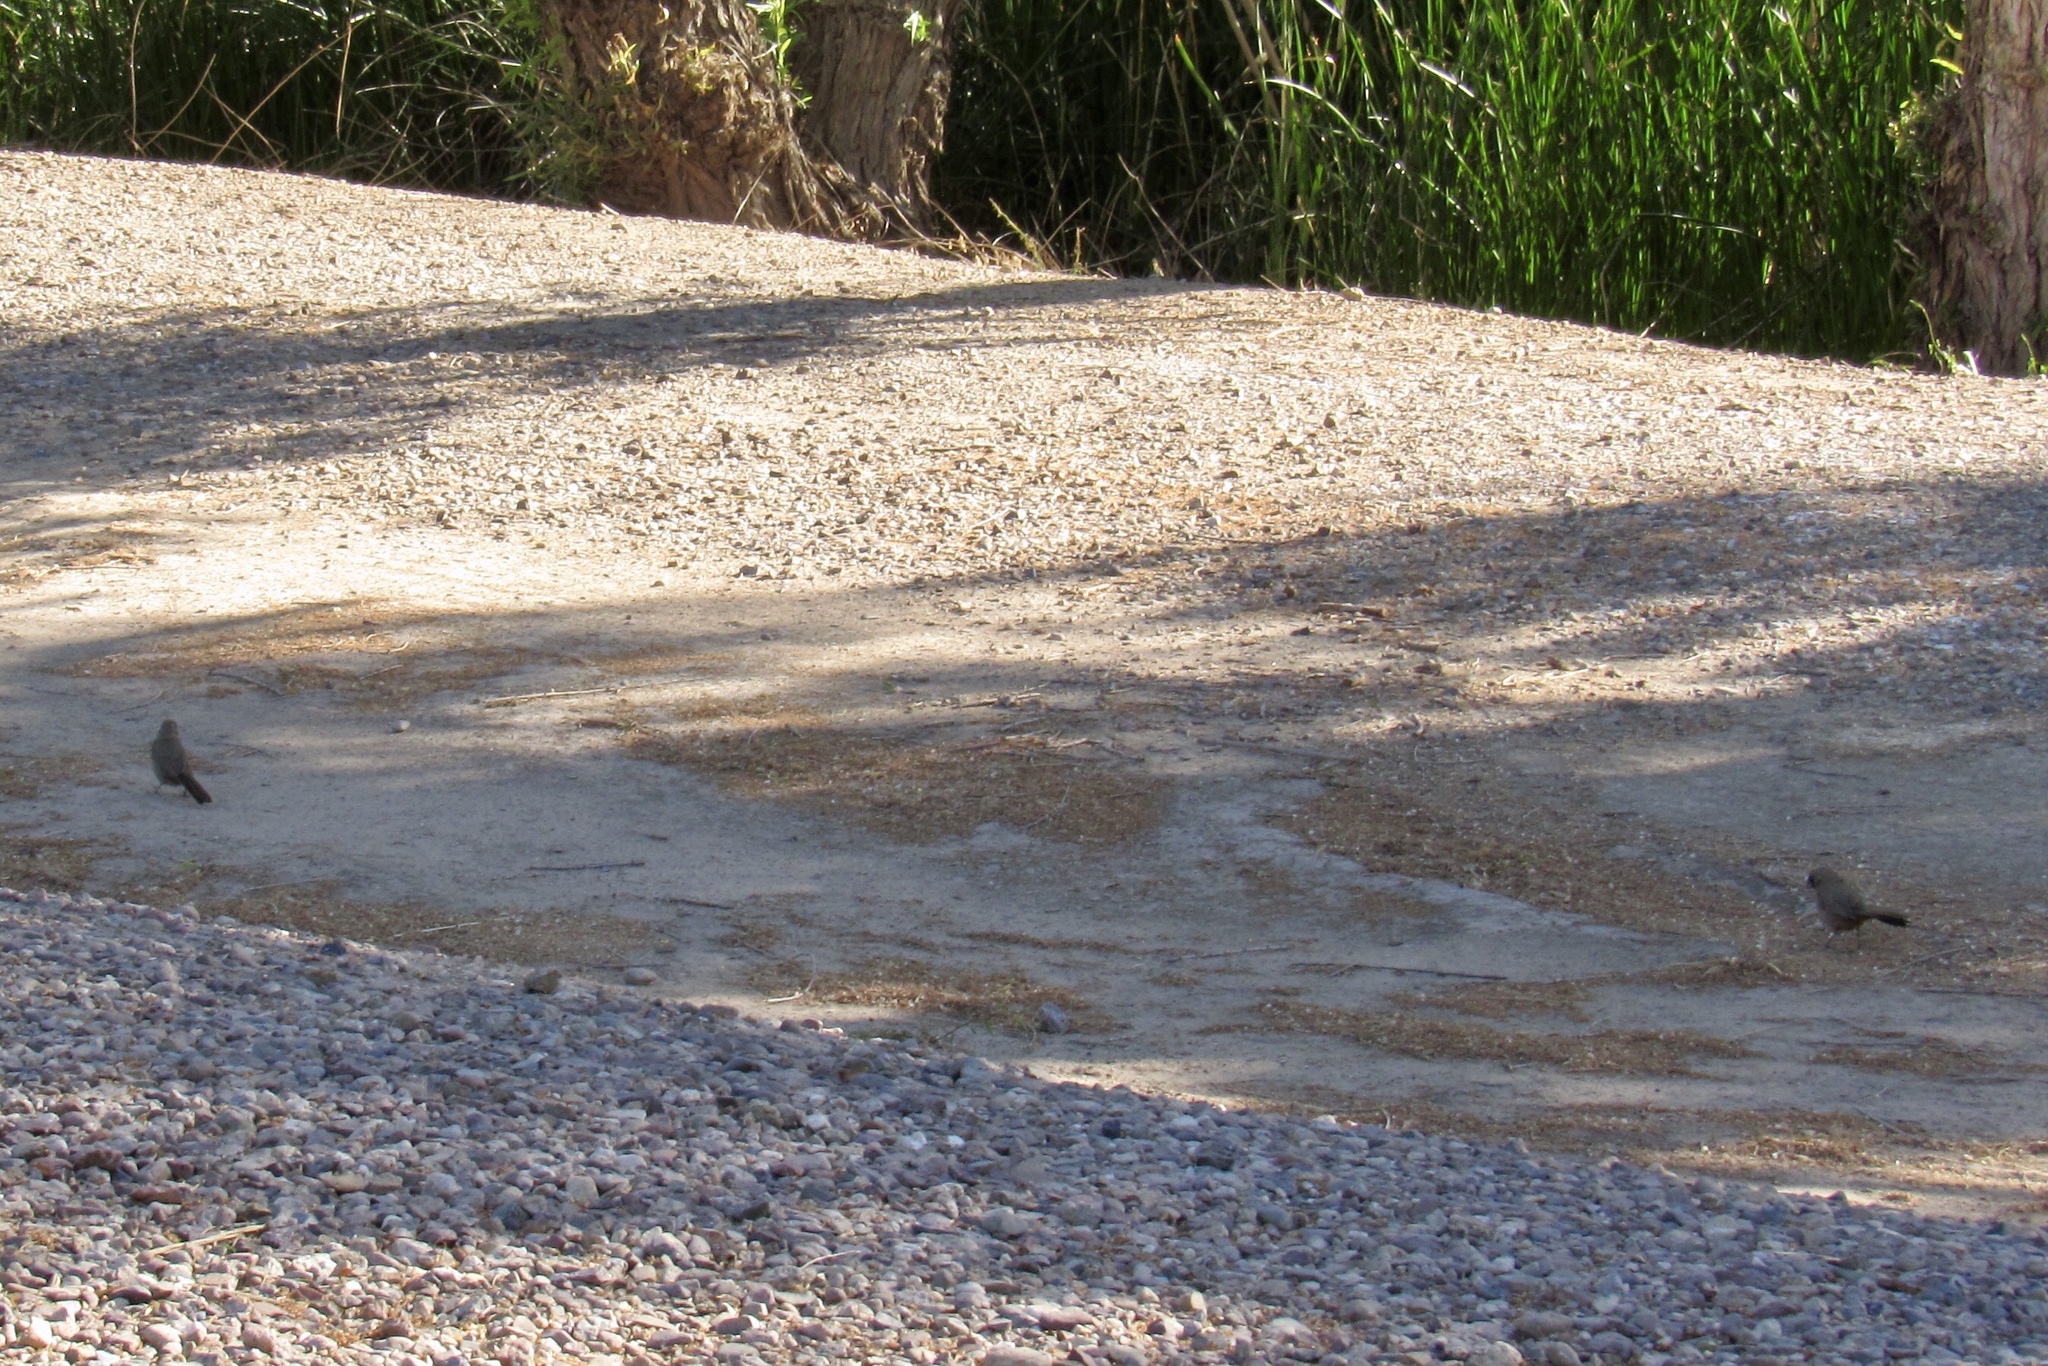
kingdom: Animalia
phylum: Chordata
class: Aves
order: Passeriformes
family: Passerellidae
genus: Melozone
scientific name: Melozone aberti
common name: Abert's towhee
